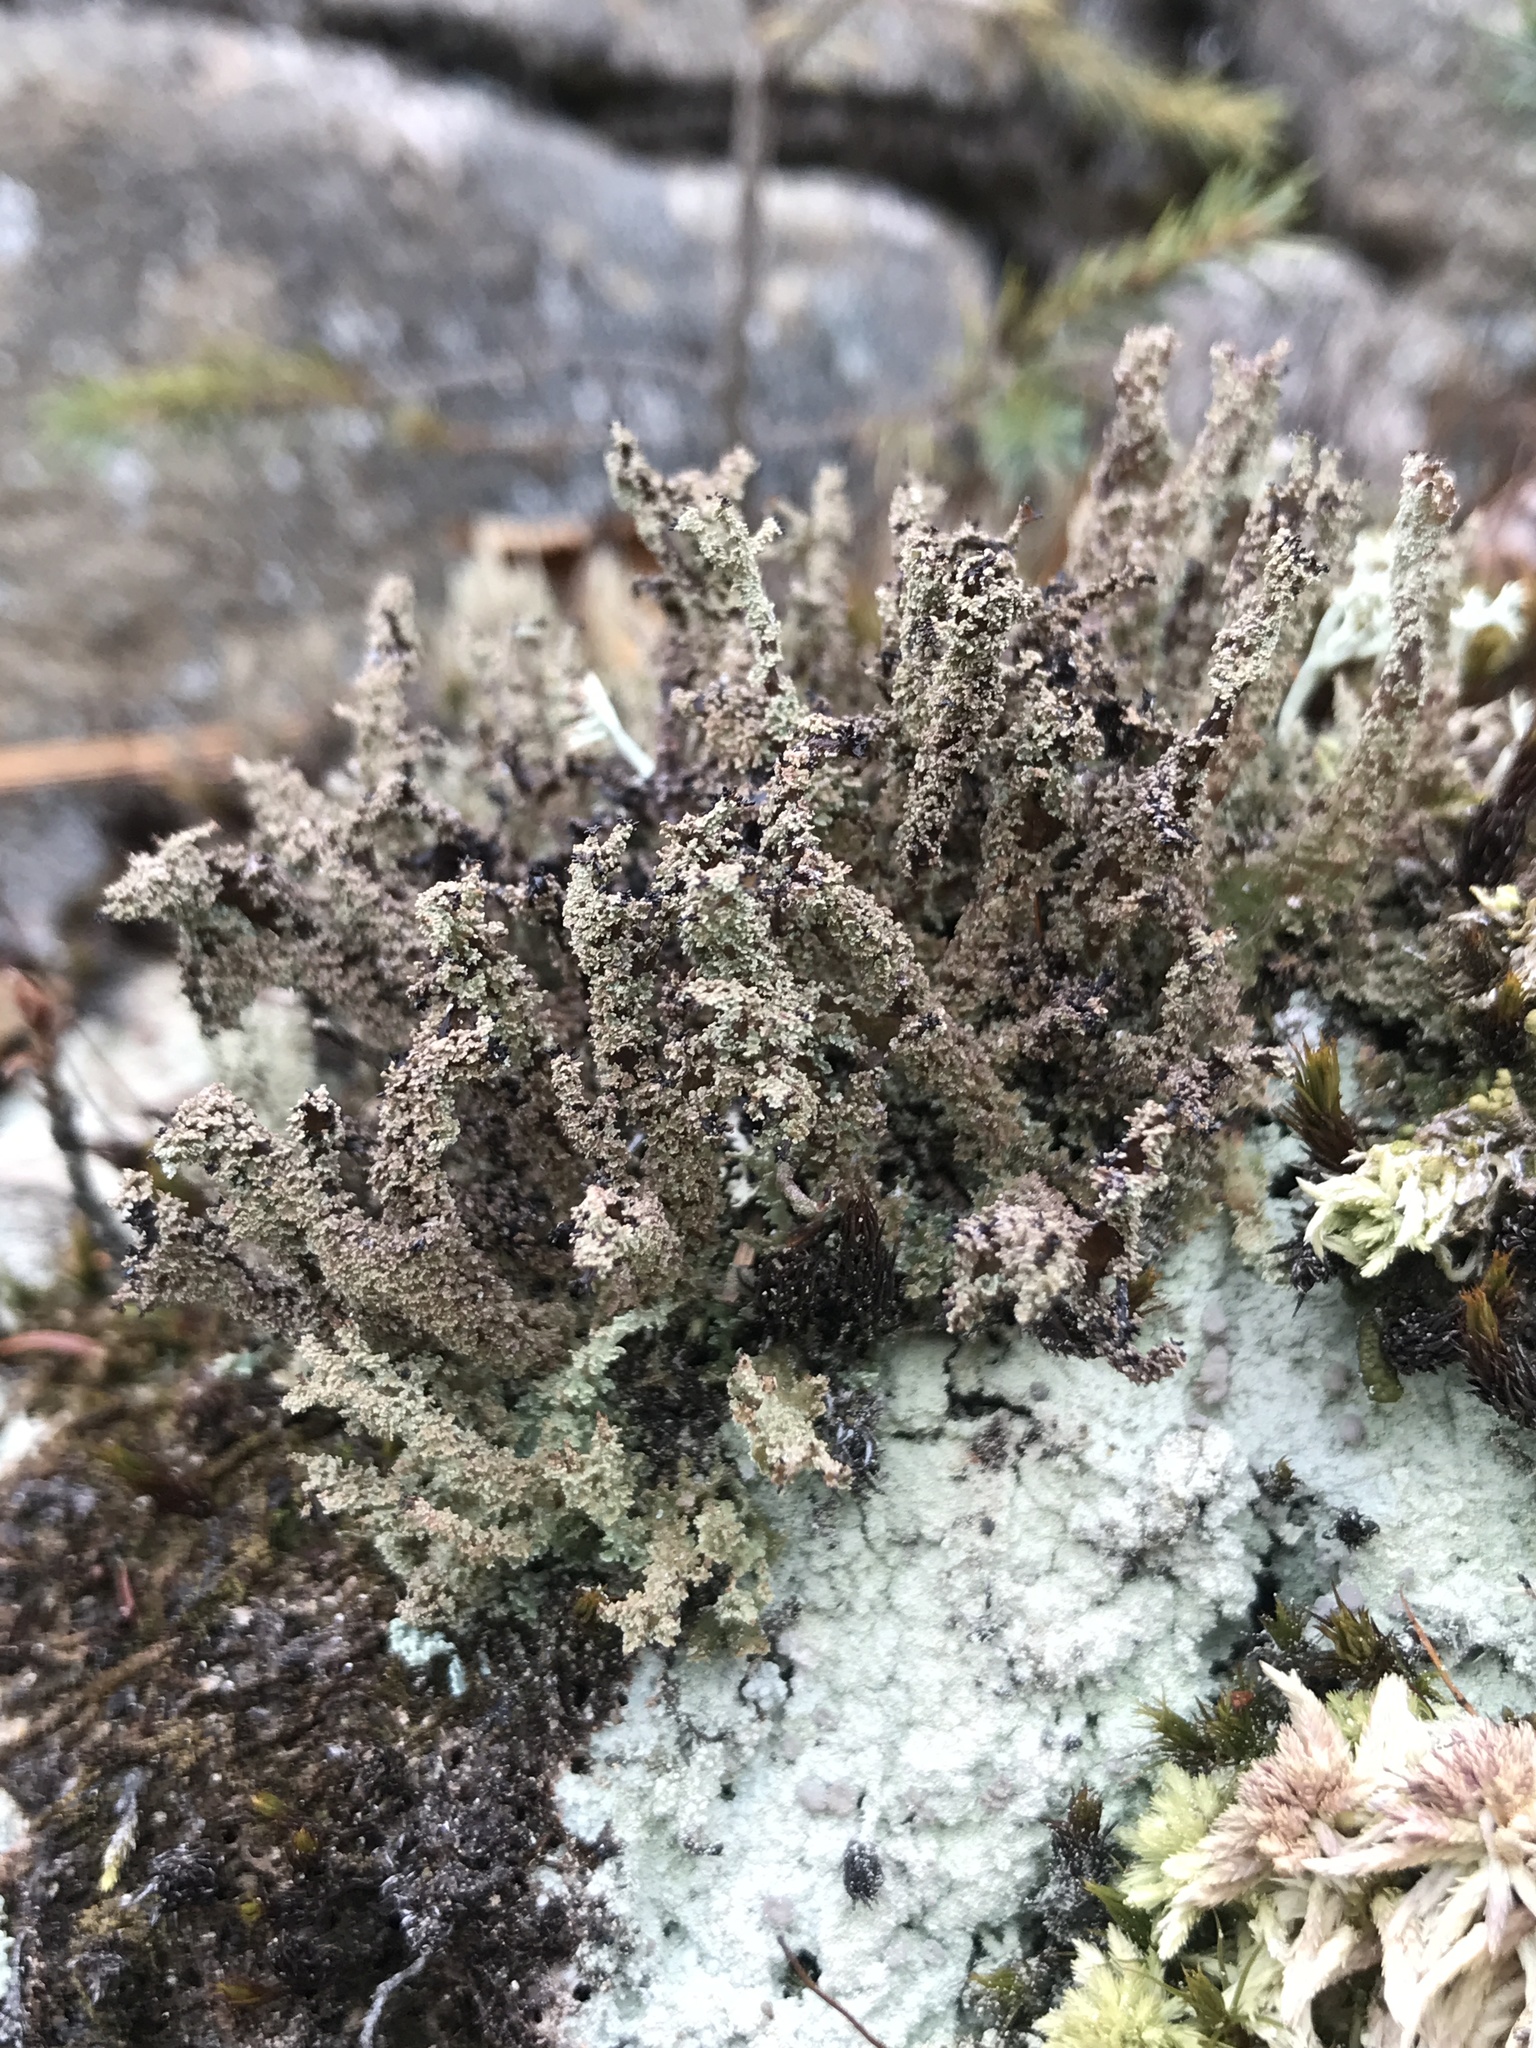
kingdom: Fungi
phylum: Ascomycota
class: Lecanoromycetes
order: Lecanorales
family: Cladoniaceae
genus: Cladonia
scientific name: Cladonia squamosa
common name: Dragon horn
